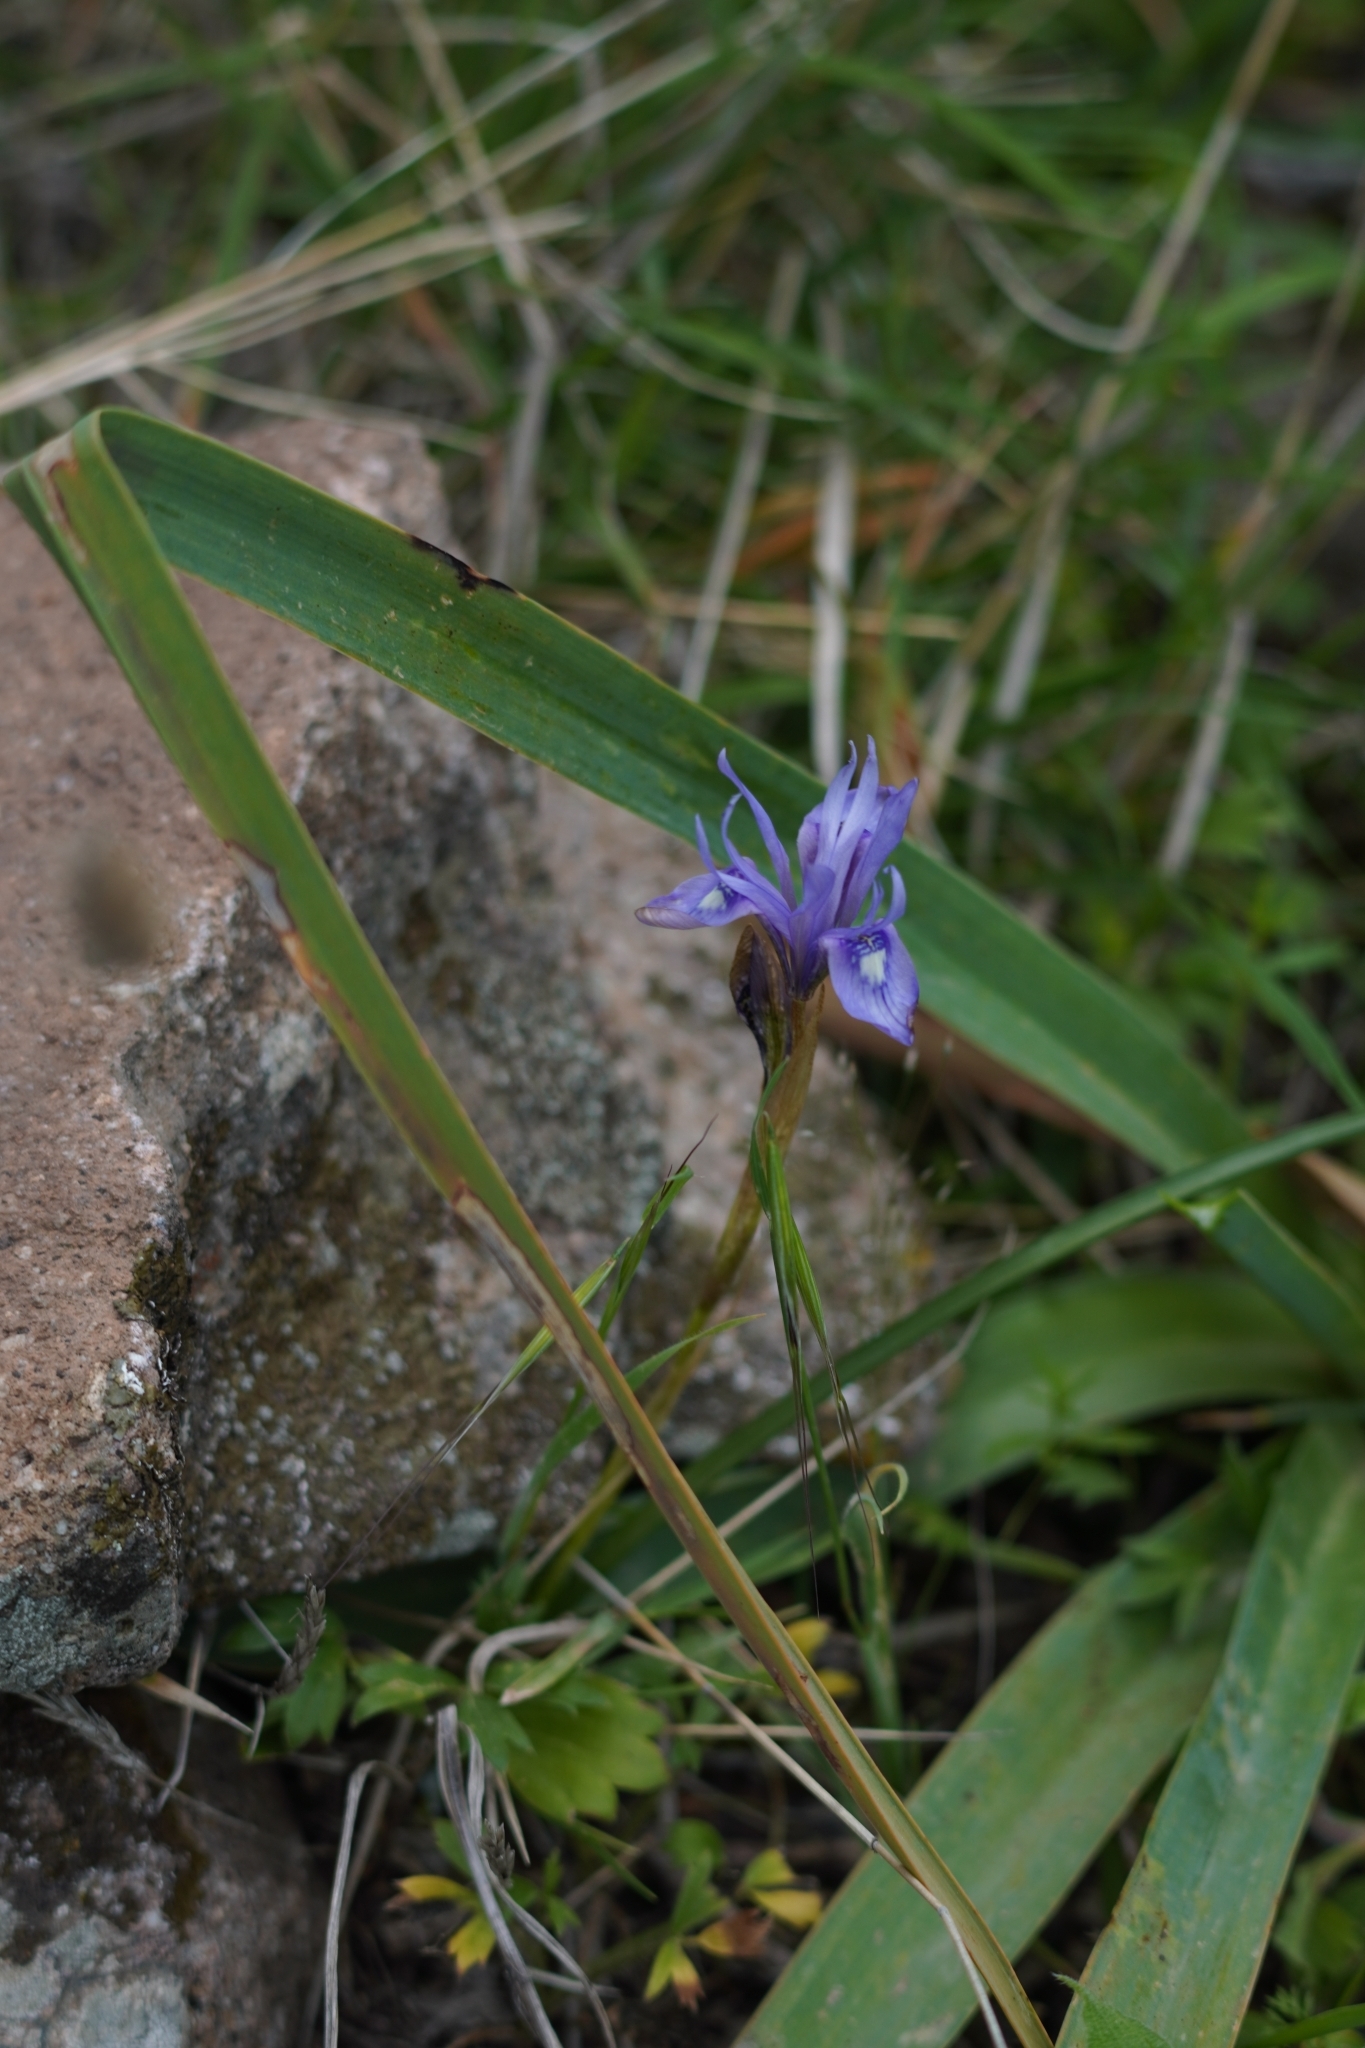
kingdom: Plantae
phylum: Tracheophyta
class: Liliopsida
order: Asparagales
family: Iridaceae
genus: Moraea
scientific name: Moraea sisyrinchium
